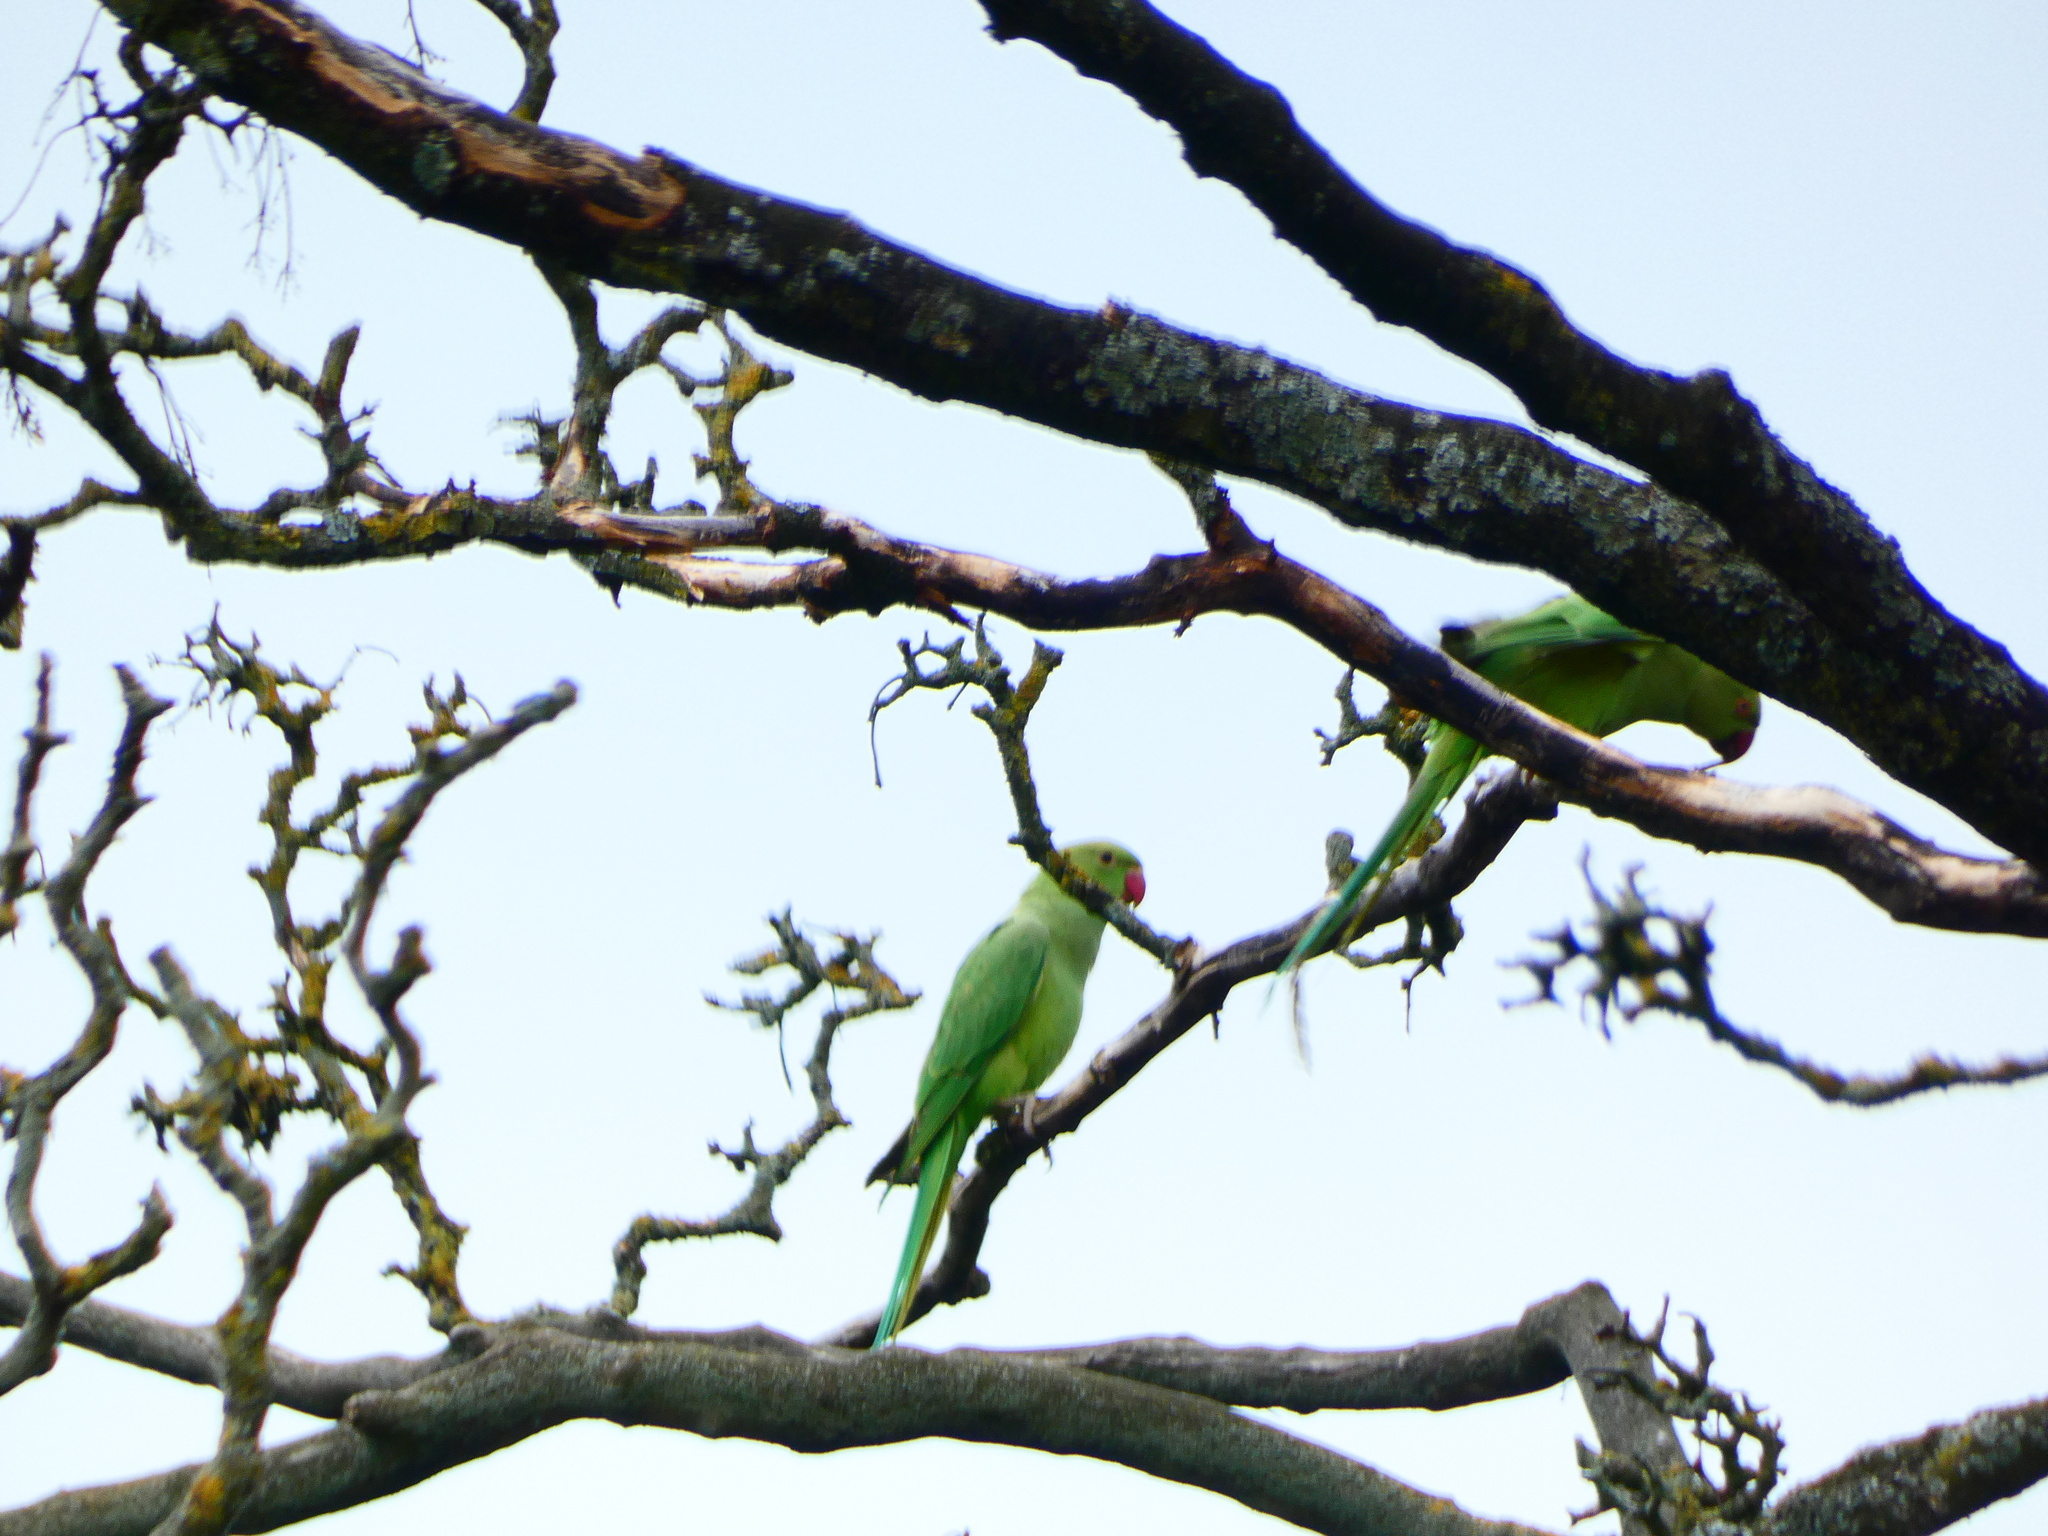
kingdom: Animalia
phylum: Chordata
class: Aves
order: Psittaciformes
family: Psittacidae
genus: Psittacula
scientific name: Psittacula krameri
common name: Rose-ringed parakeet
